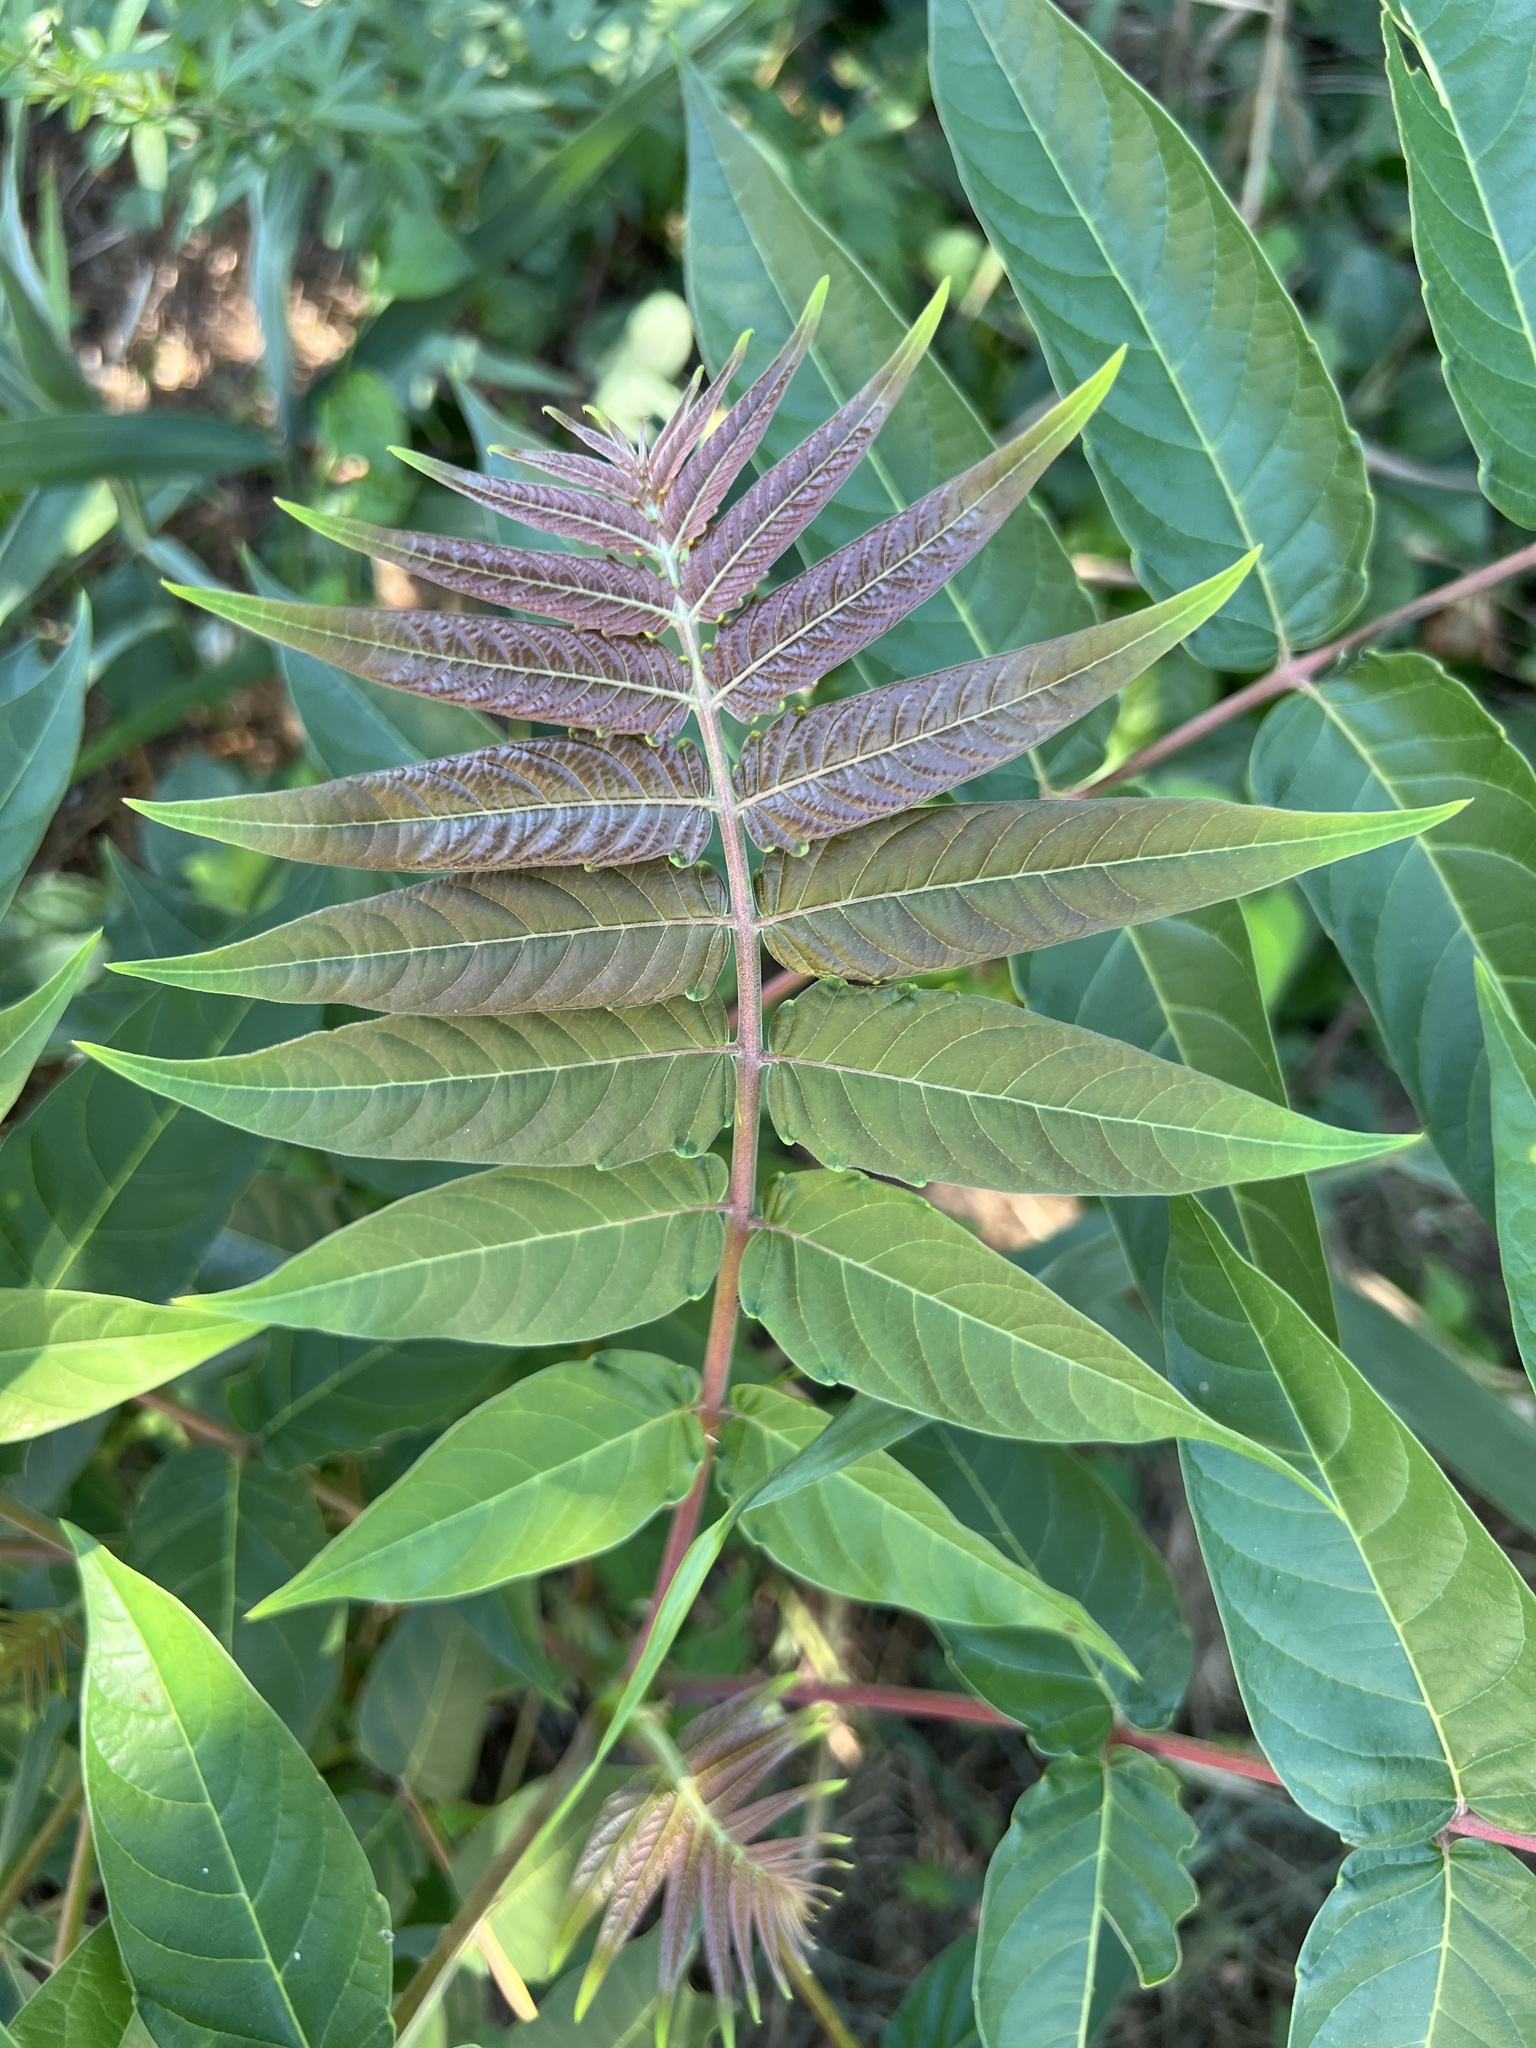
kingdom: Plantae
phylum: Tracheophyta
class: Magnoliopsida
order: Sapindales
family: Simaroubaceae
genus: Ailanthus
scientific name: Ailanthus altissima
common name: Tree-of-heaven
